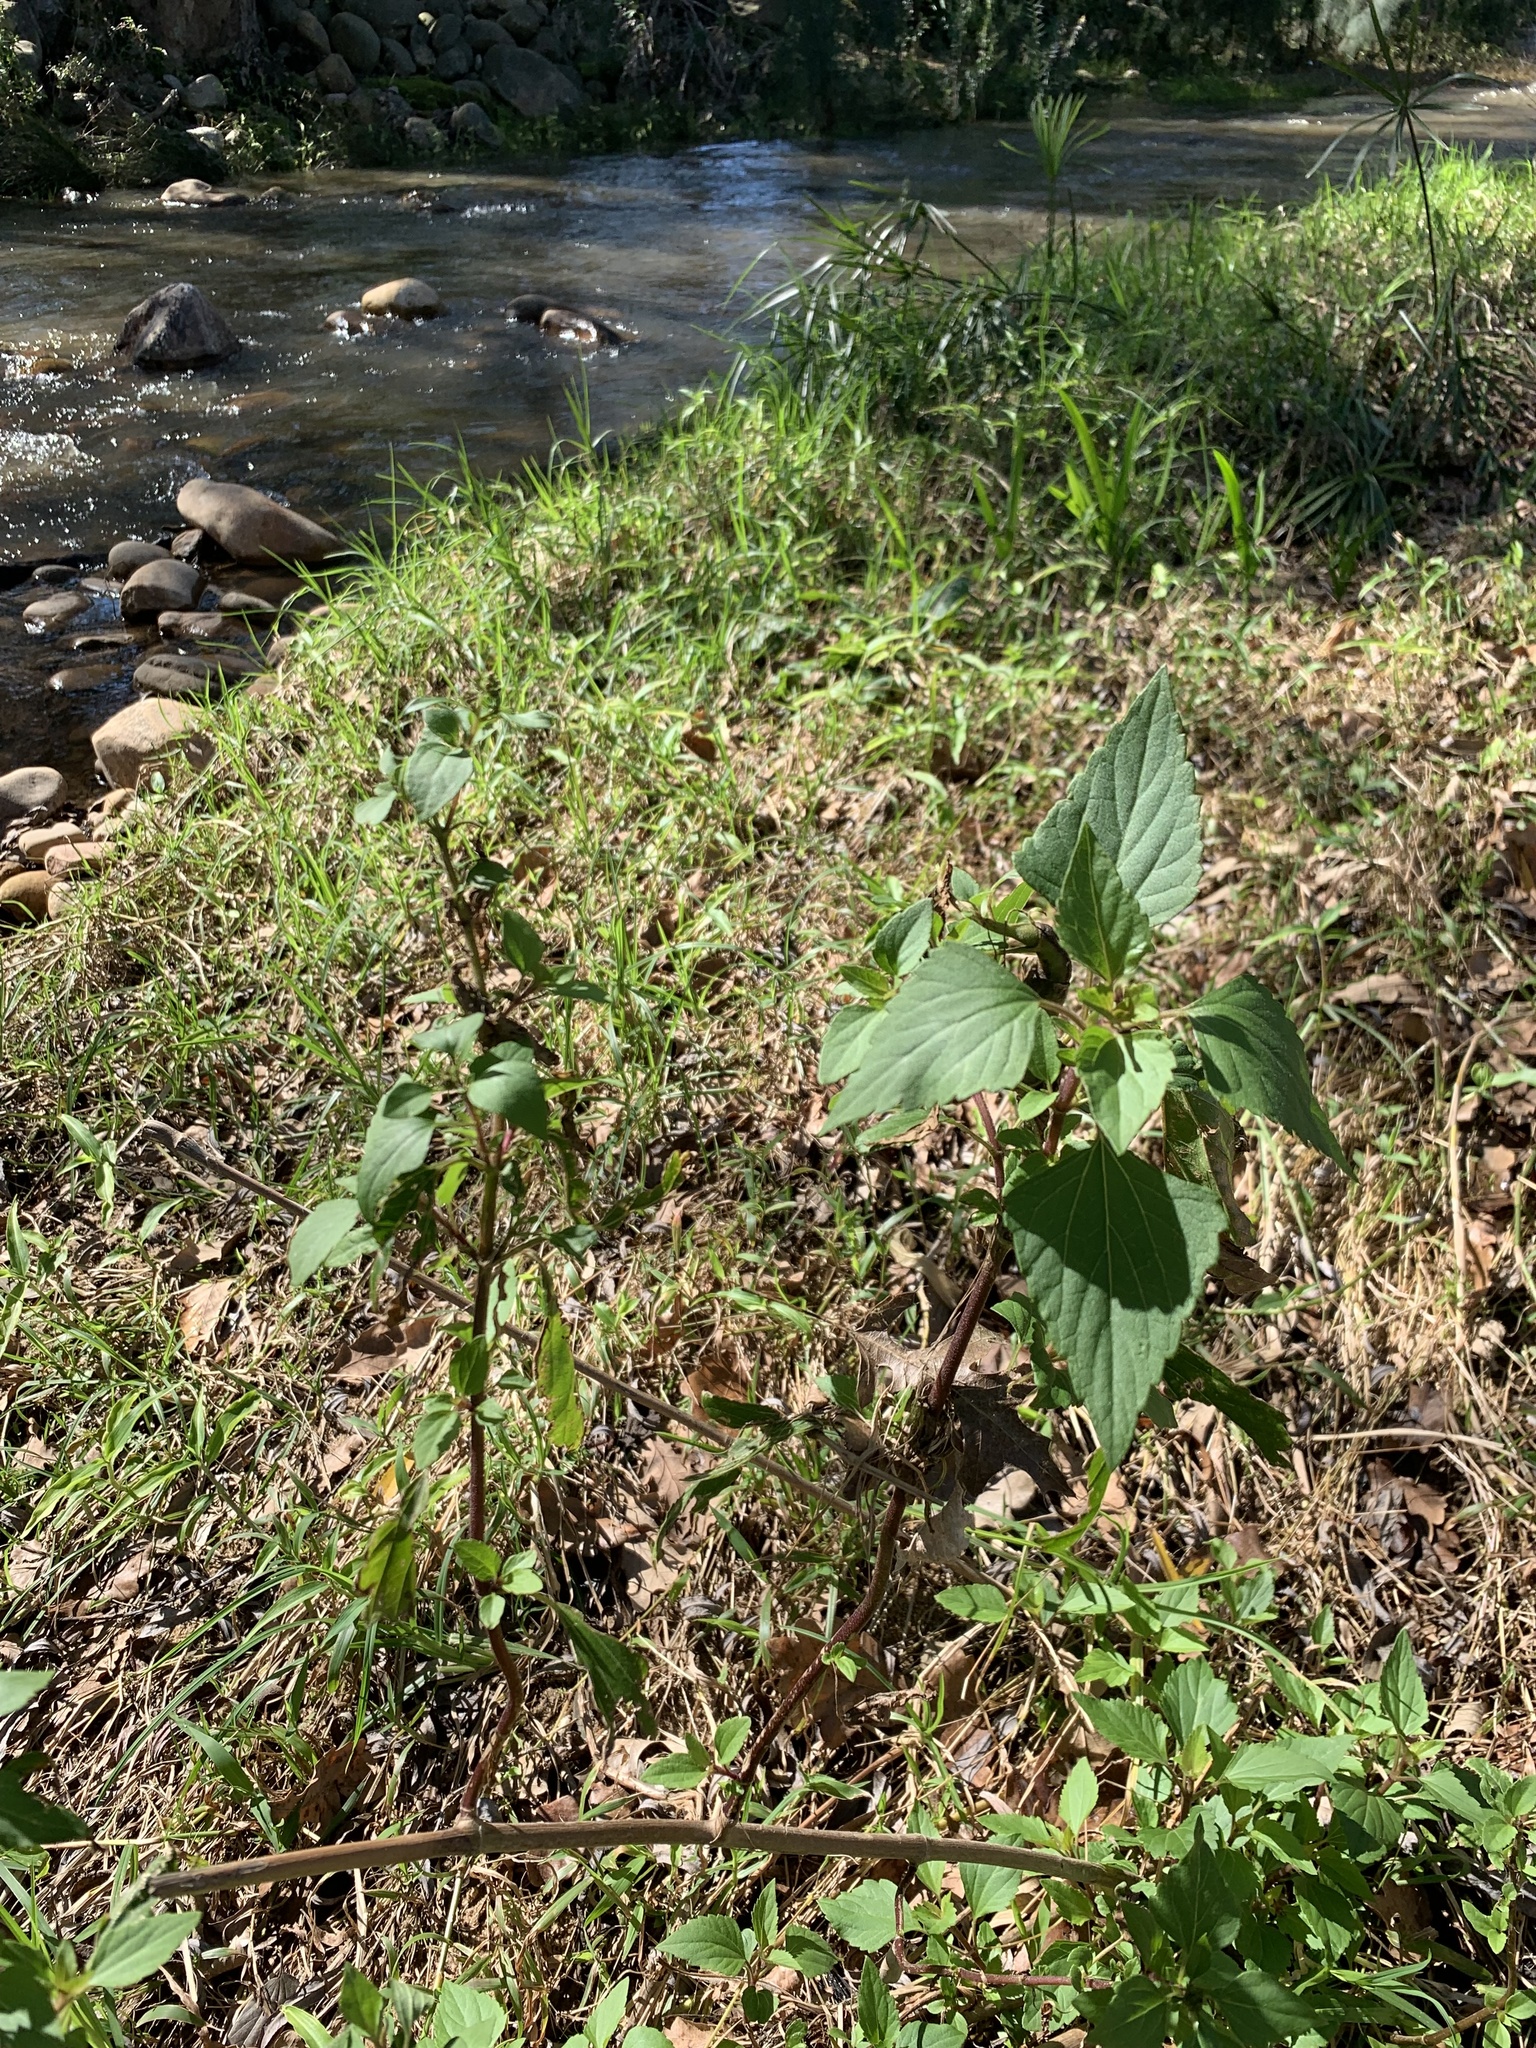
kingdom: Plantae
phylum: Tracheophyta
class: Magnoliopsida
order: Asterales
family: Asteraceae
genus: Ageratina
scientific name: Ageratina adenophora
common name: Sticky snakeroot
